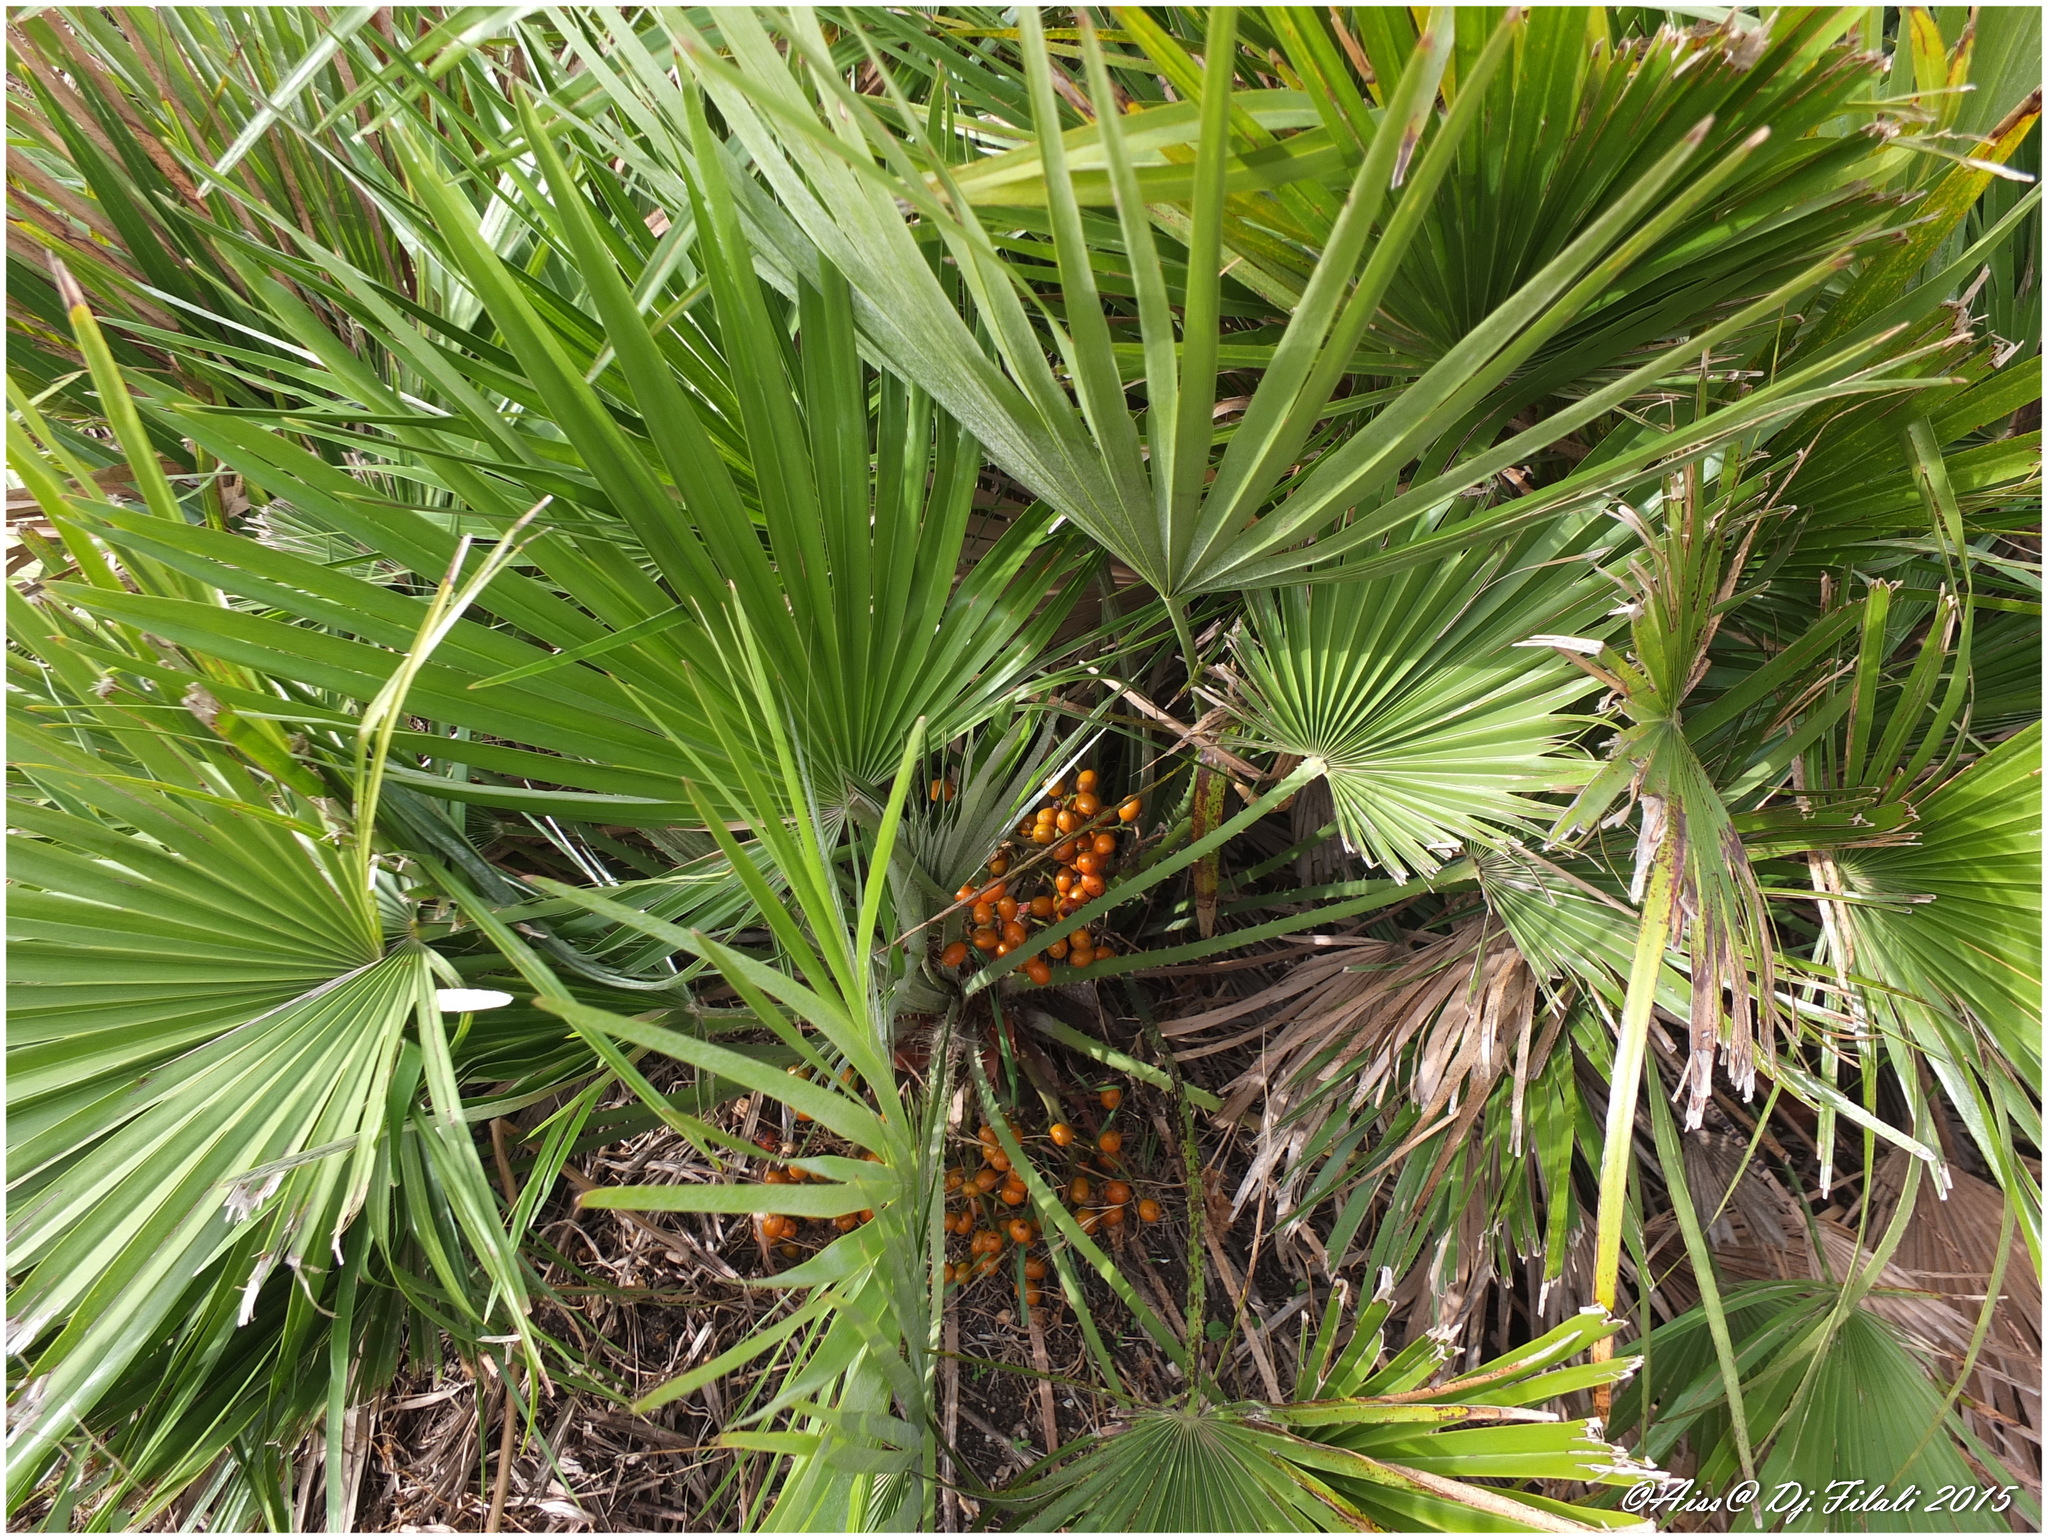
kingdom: Plantae
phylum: Tracheophyta
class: Liliopsida
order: Arecales
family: Arecaceae
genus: Chamaerops
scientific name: Chamaerops humilis
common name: Dwarf fan palm
